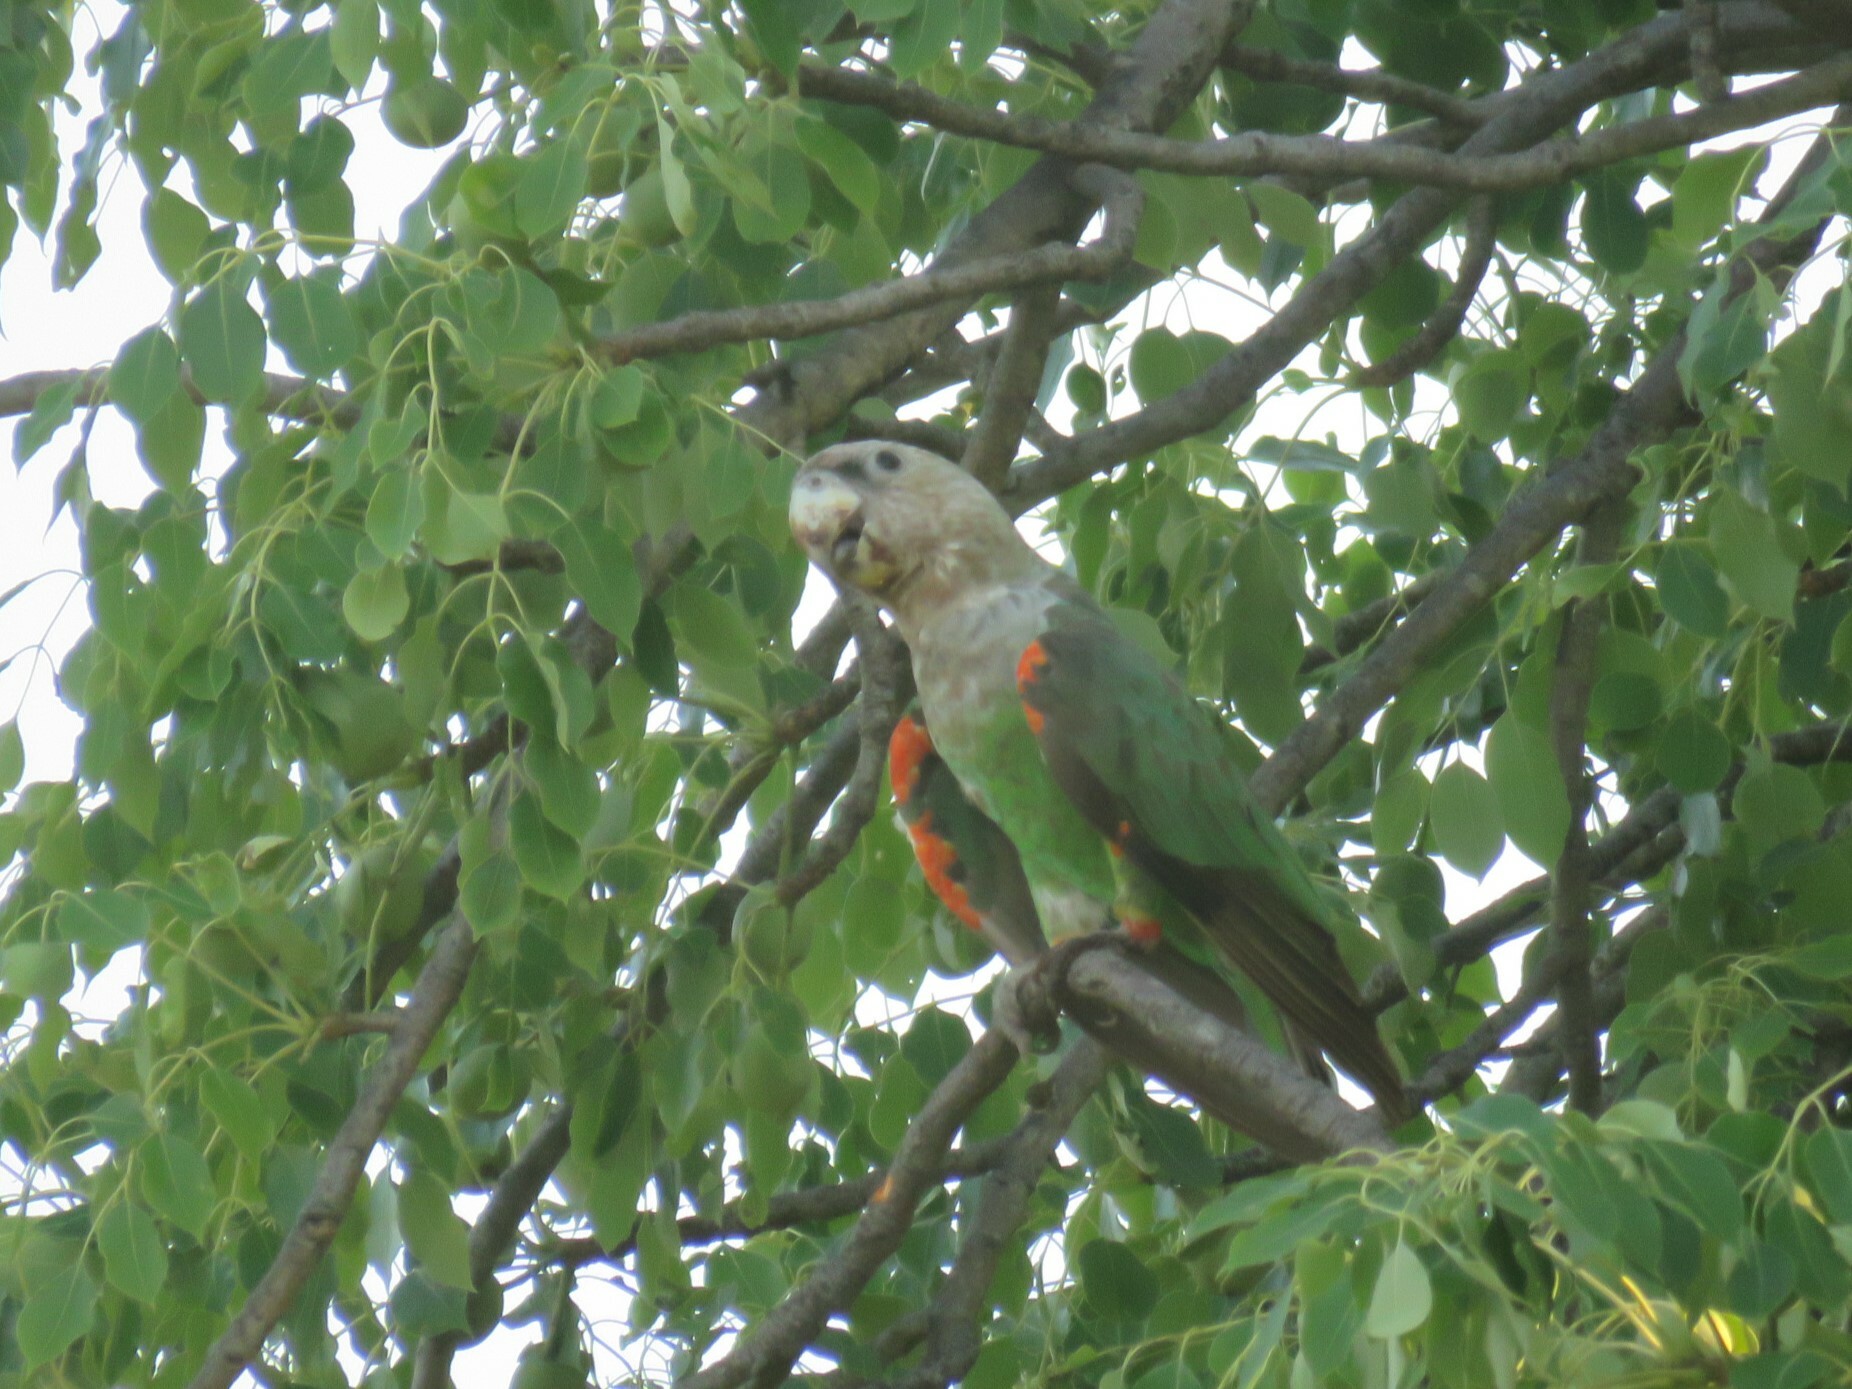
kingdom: Animalia
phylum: Chordata
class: Aves
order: Psittaciformes
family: Psittacidae
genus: Poicephalus
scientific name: Poicephalus robustus
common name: Cape parrot
